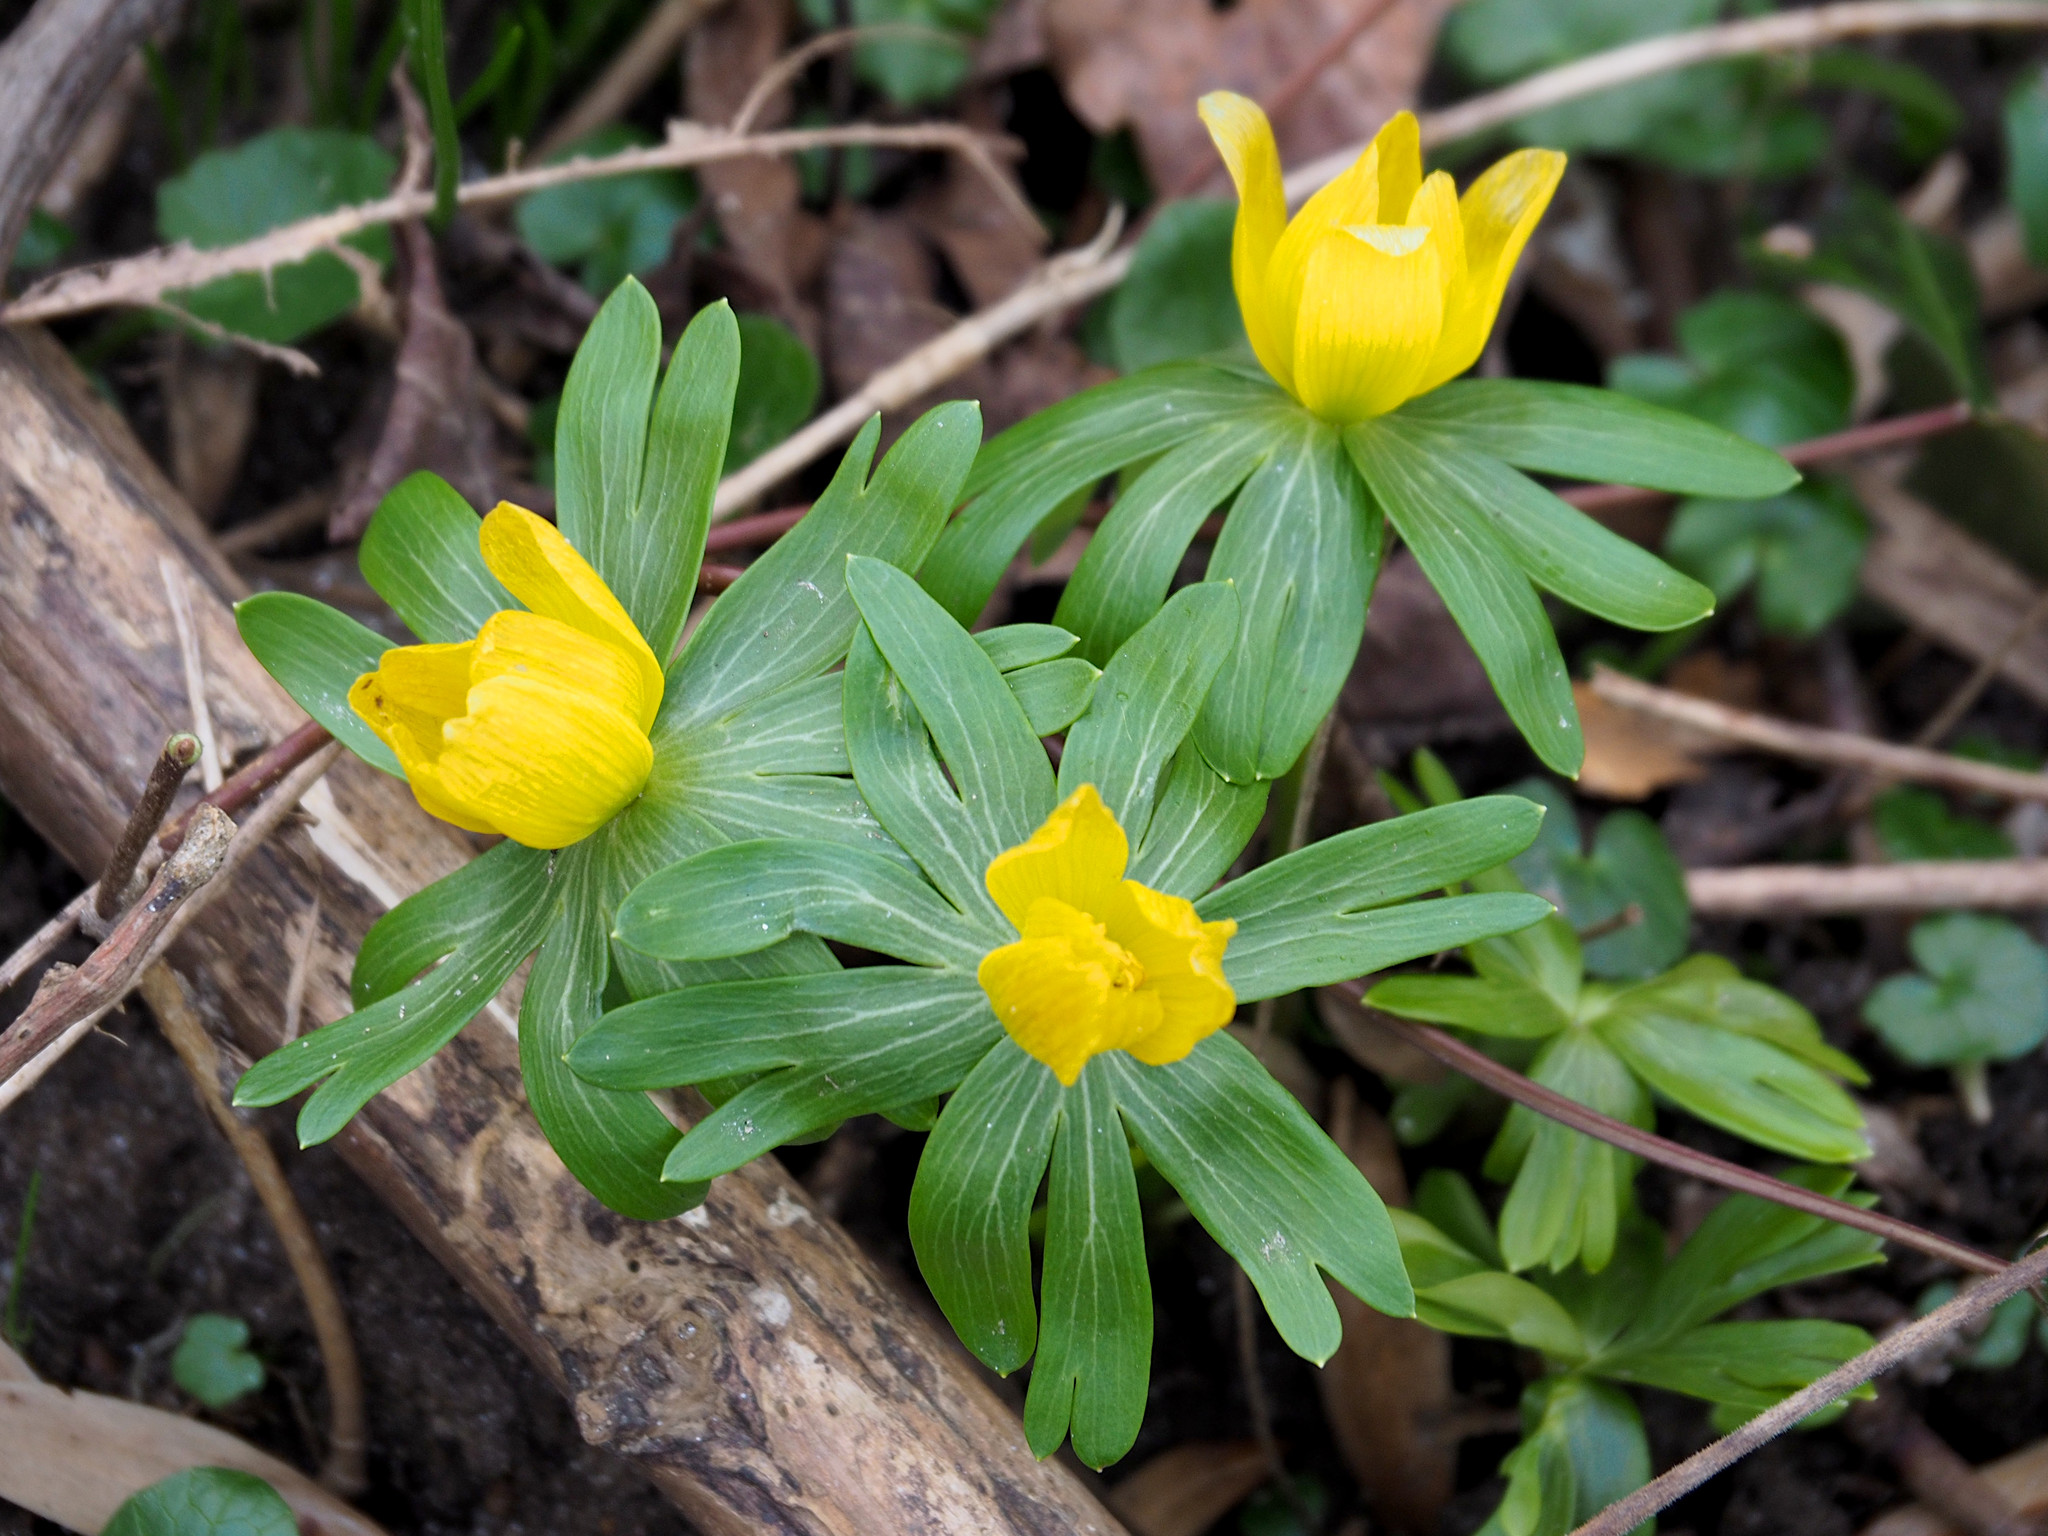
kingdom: Plantae
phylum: Tracheophyta
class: Magnoliopsida
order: Ranunculales
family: Ranunculaceae
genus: Eranthis
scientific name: Eranthis hyemalis
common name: Winter aconite
